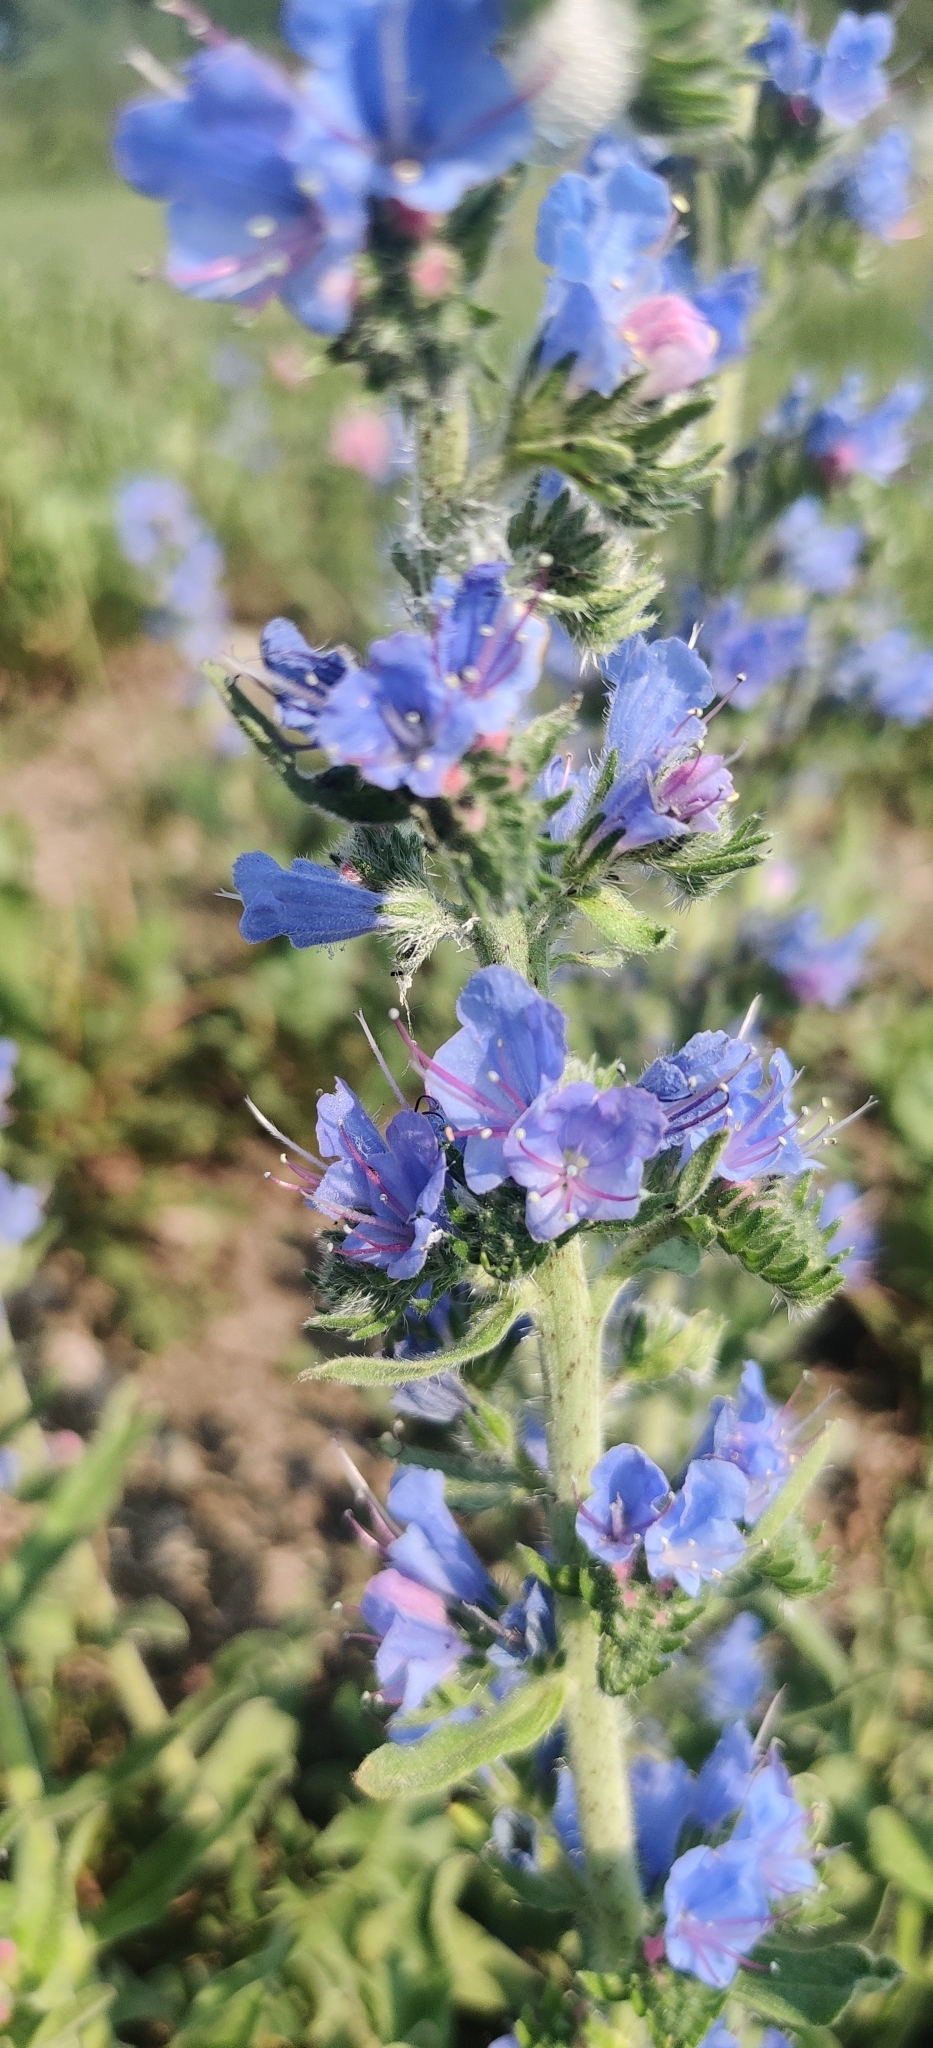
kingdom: Plantae
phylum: Tracheophyta
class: Magnoliopsida
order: Boraginales
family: Boraginaceae
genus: Echium
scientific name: Echium vulgare
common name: Common viper's bugloss
